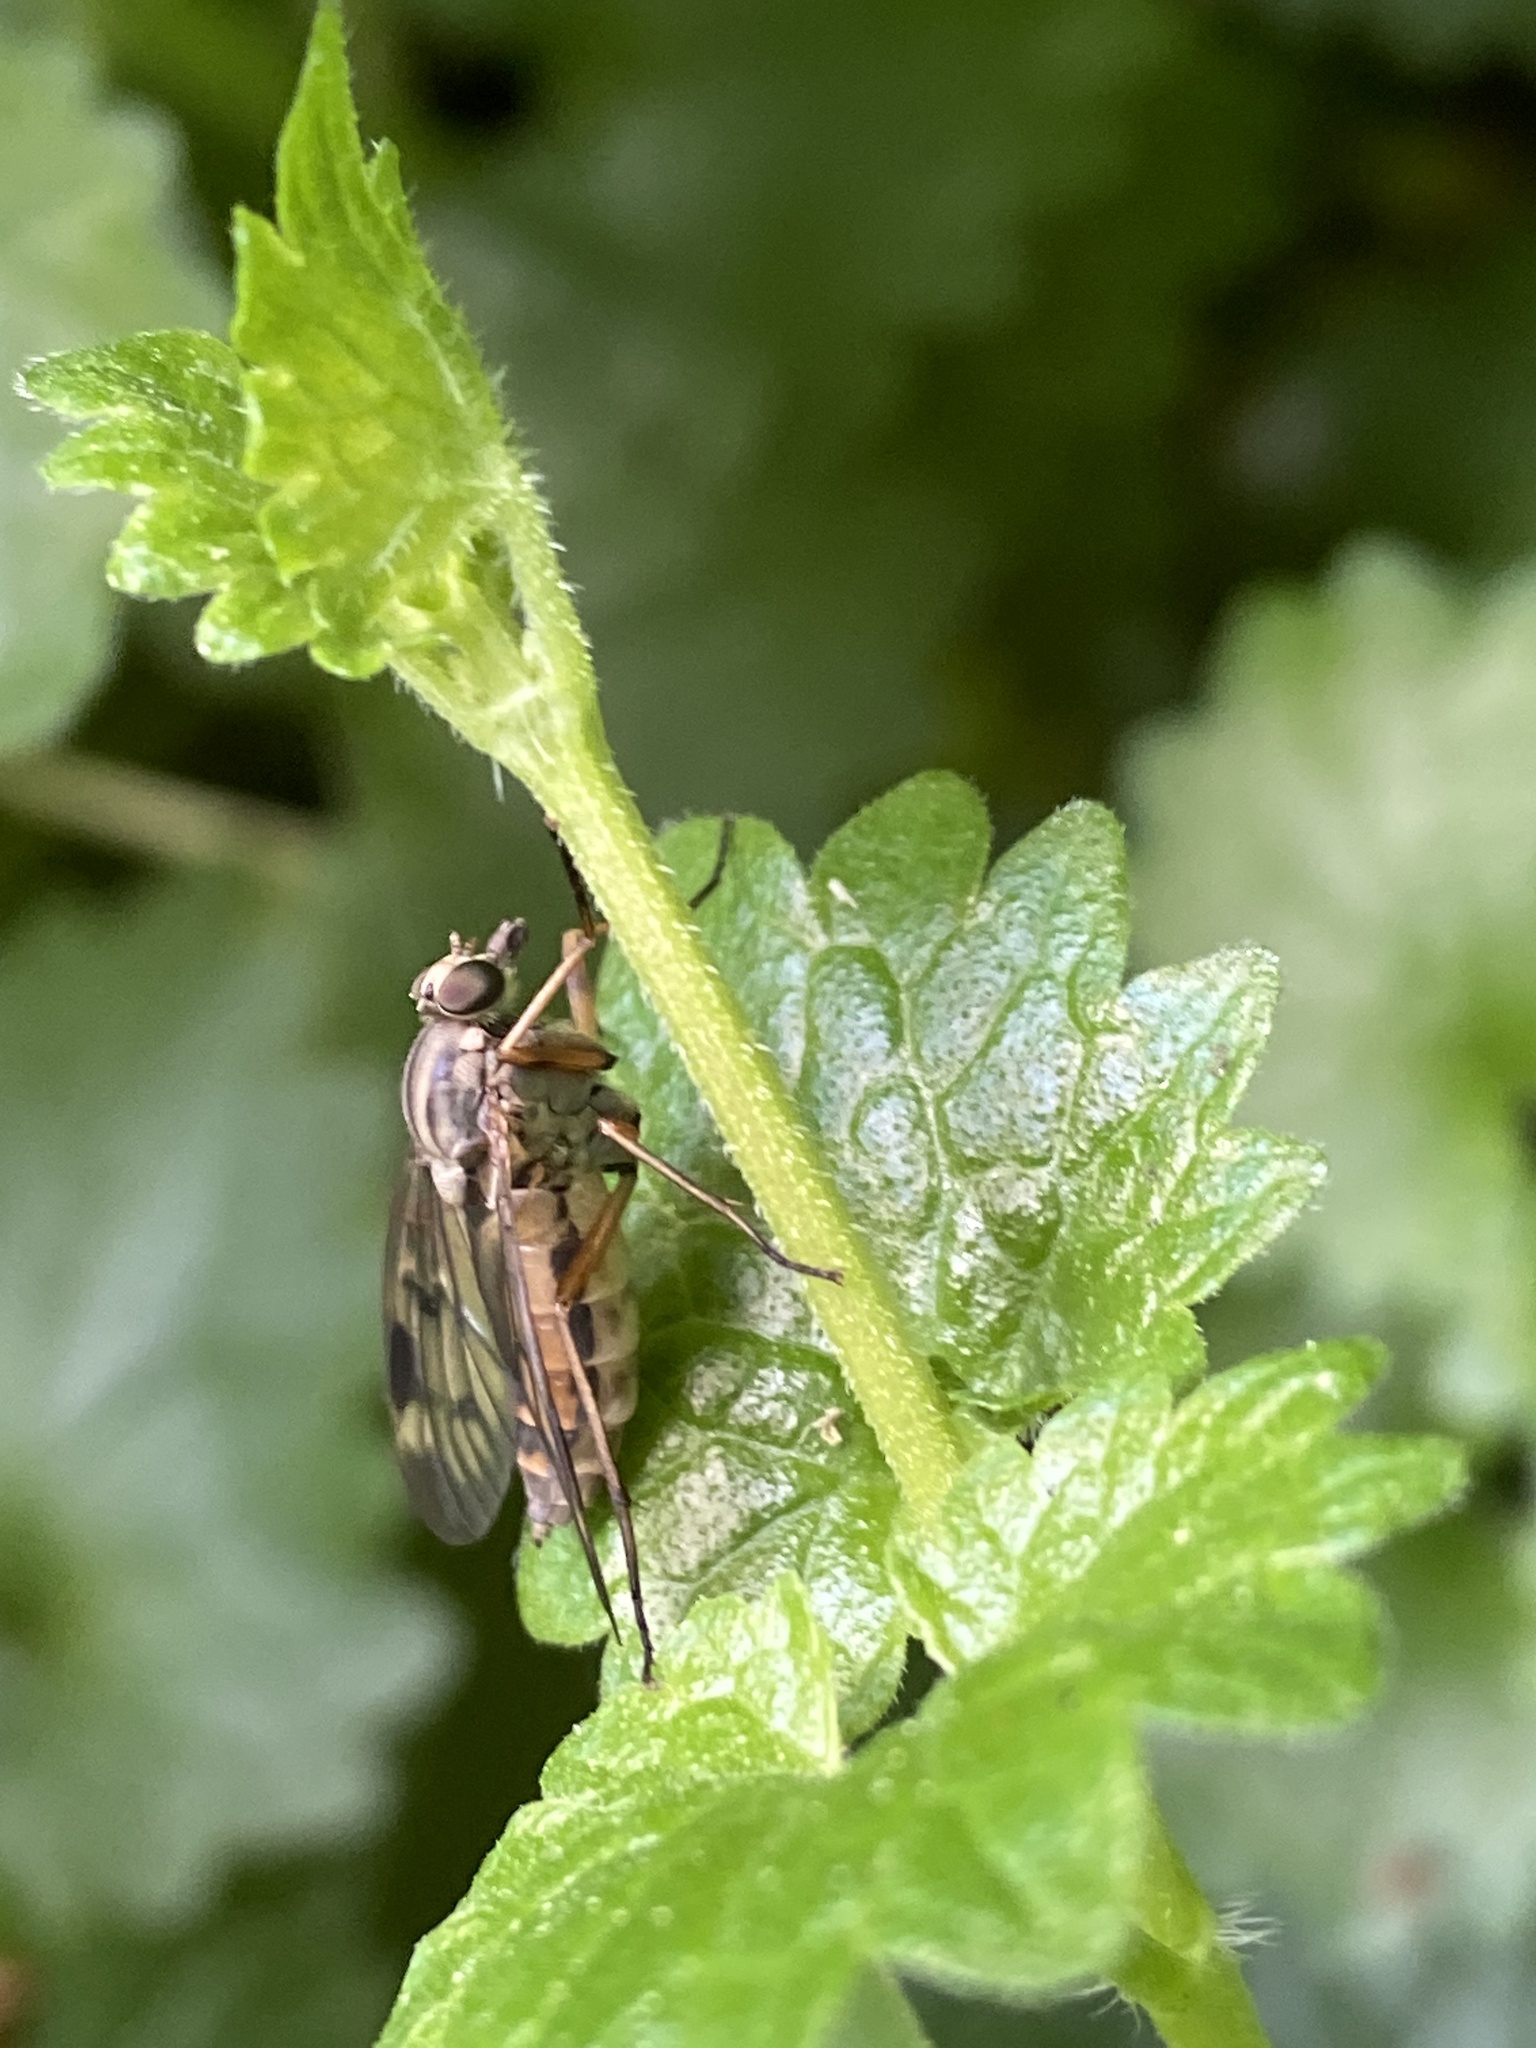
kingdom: Animalia
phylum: Arthropoda
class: Insecta
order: Diptera
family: Rhagionidae
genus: Rhagio
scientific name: Rhagio scolopacea
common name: Downlooker snipefly
